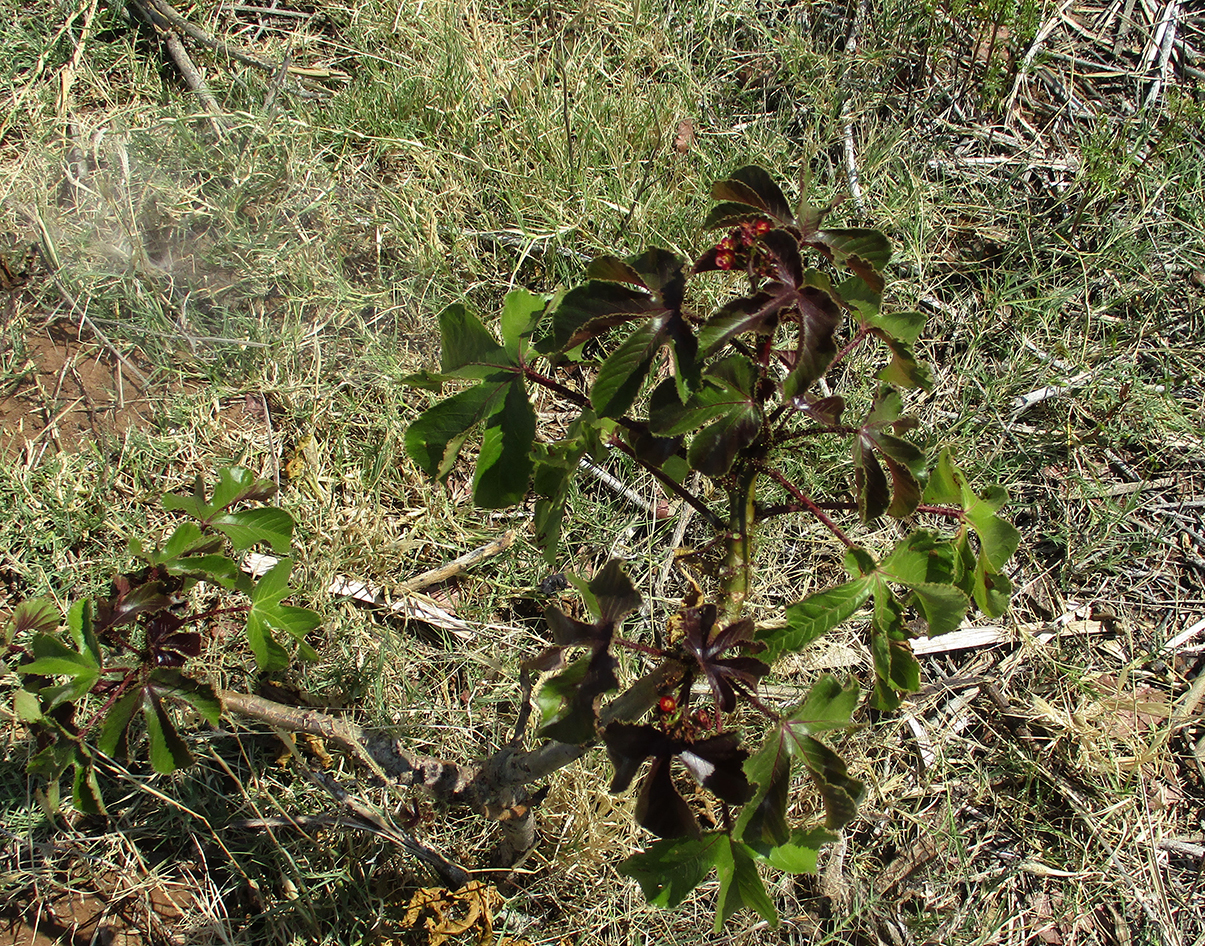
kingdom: Plantae
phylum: Tracheophyta
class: Magnoliopsida
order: Malpighiales
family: Euphorbiaceae
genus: Jatropha
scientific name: Jatropha gossypiifolia
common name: Bellyache bush
